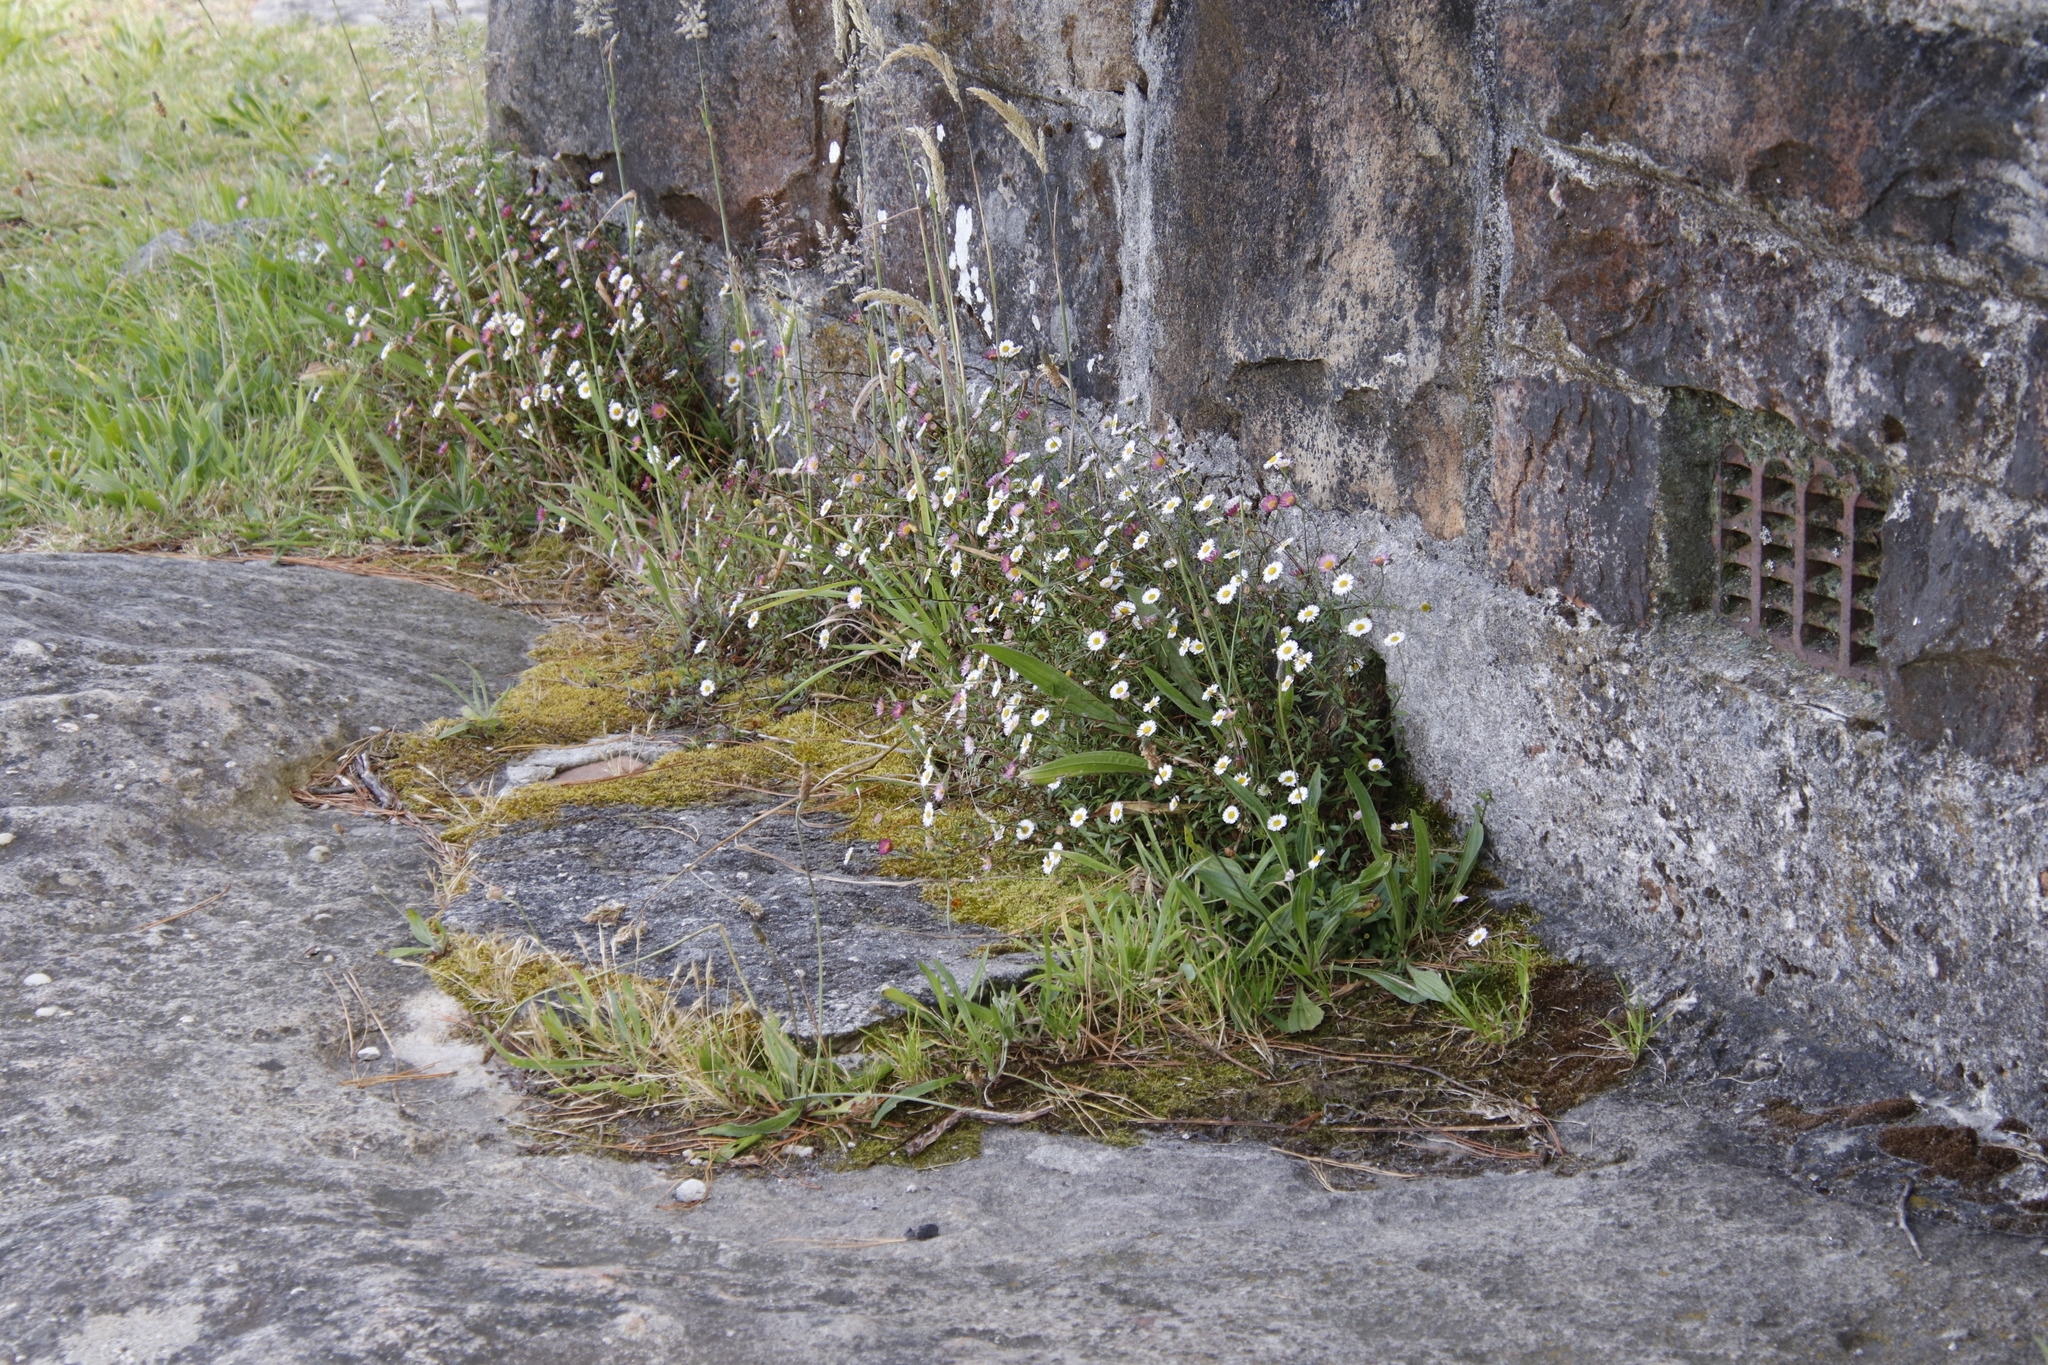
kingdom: Plantae
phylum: Tracheophyta
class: Magnoliopsida
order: Asterales
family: Asteraceae
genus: Erigeron
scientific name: Erigeron karvinskianus
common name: Mexican fleabane
